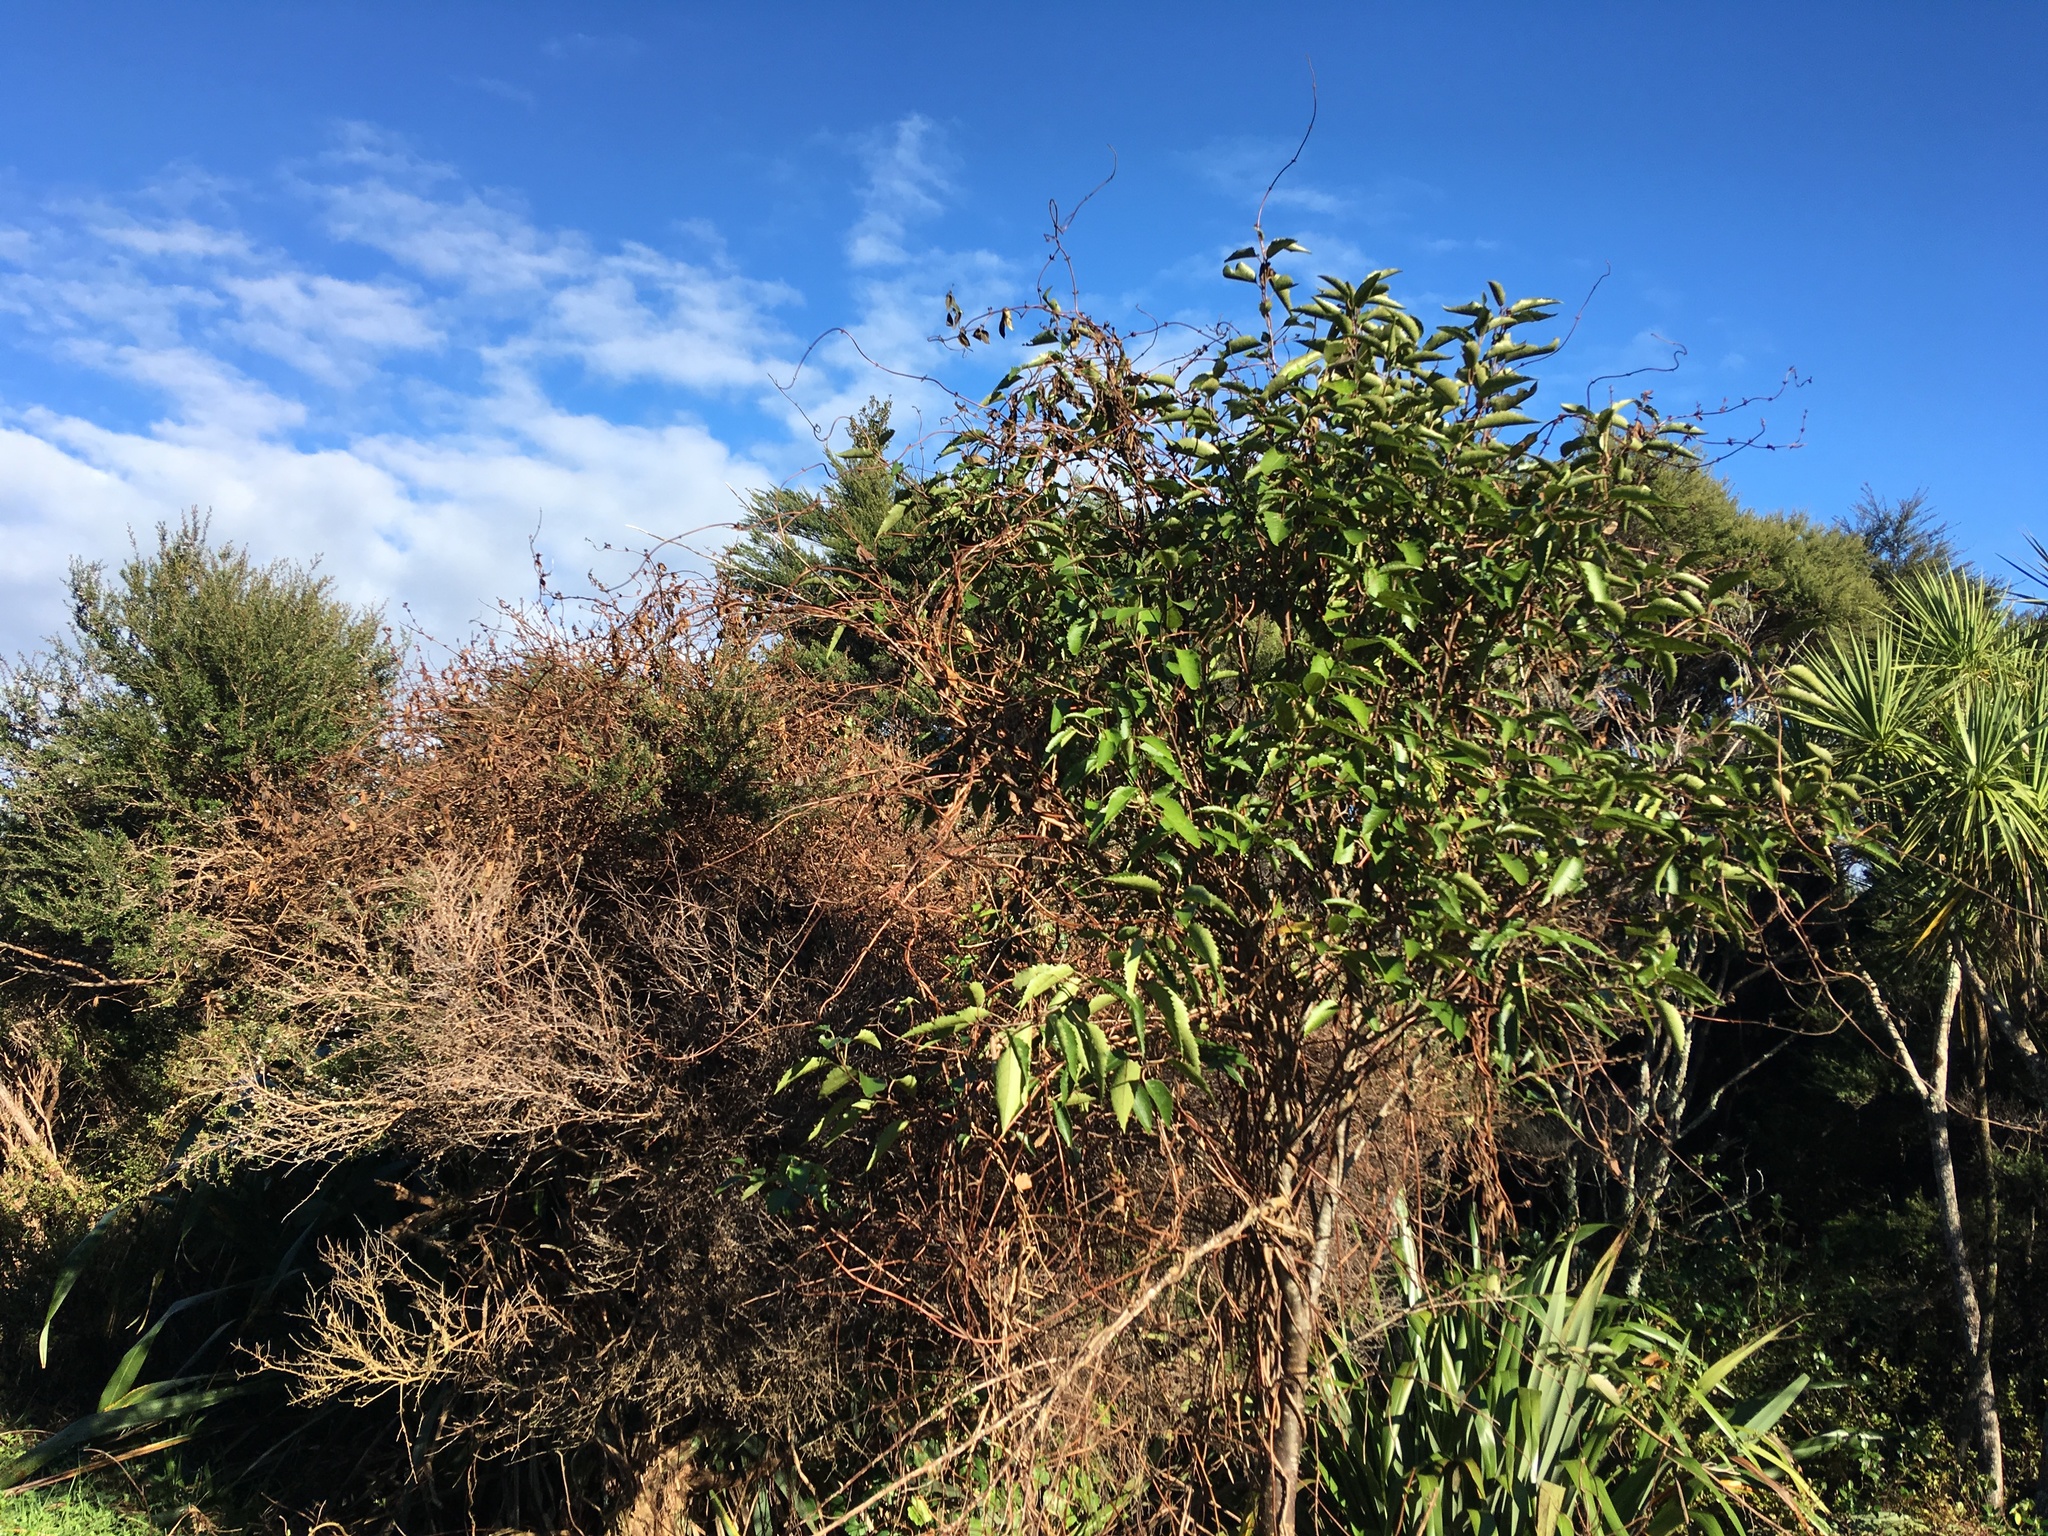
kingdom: Plantae
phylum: Tracheophyta
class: Magnoliopsida
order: Malvales
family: Malvaceae
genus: Hoheria
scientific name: Hoheria populnea
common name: Lacebark
